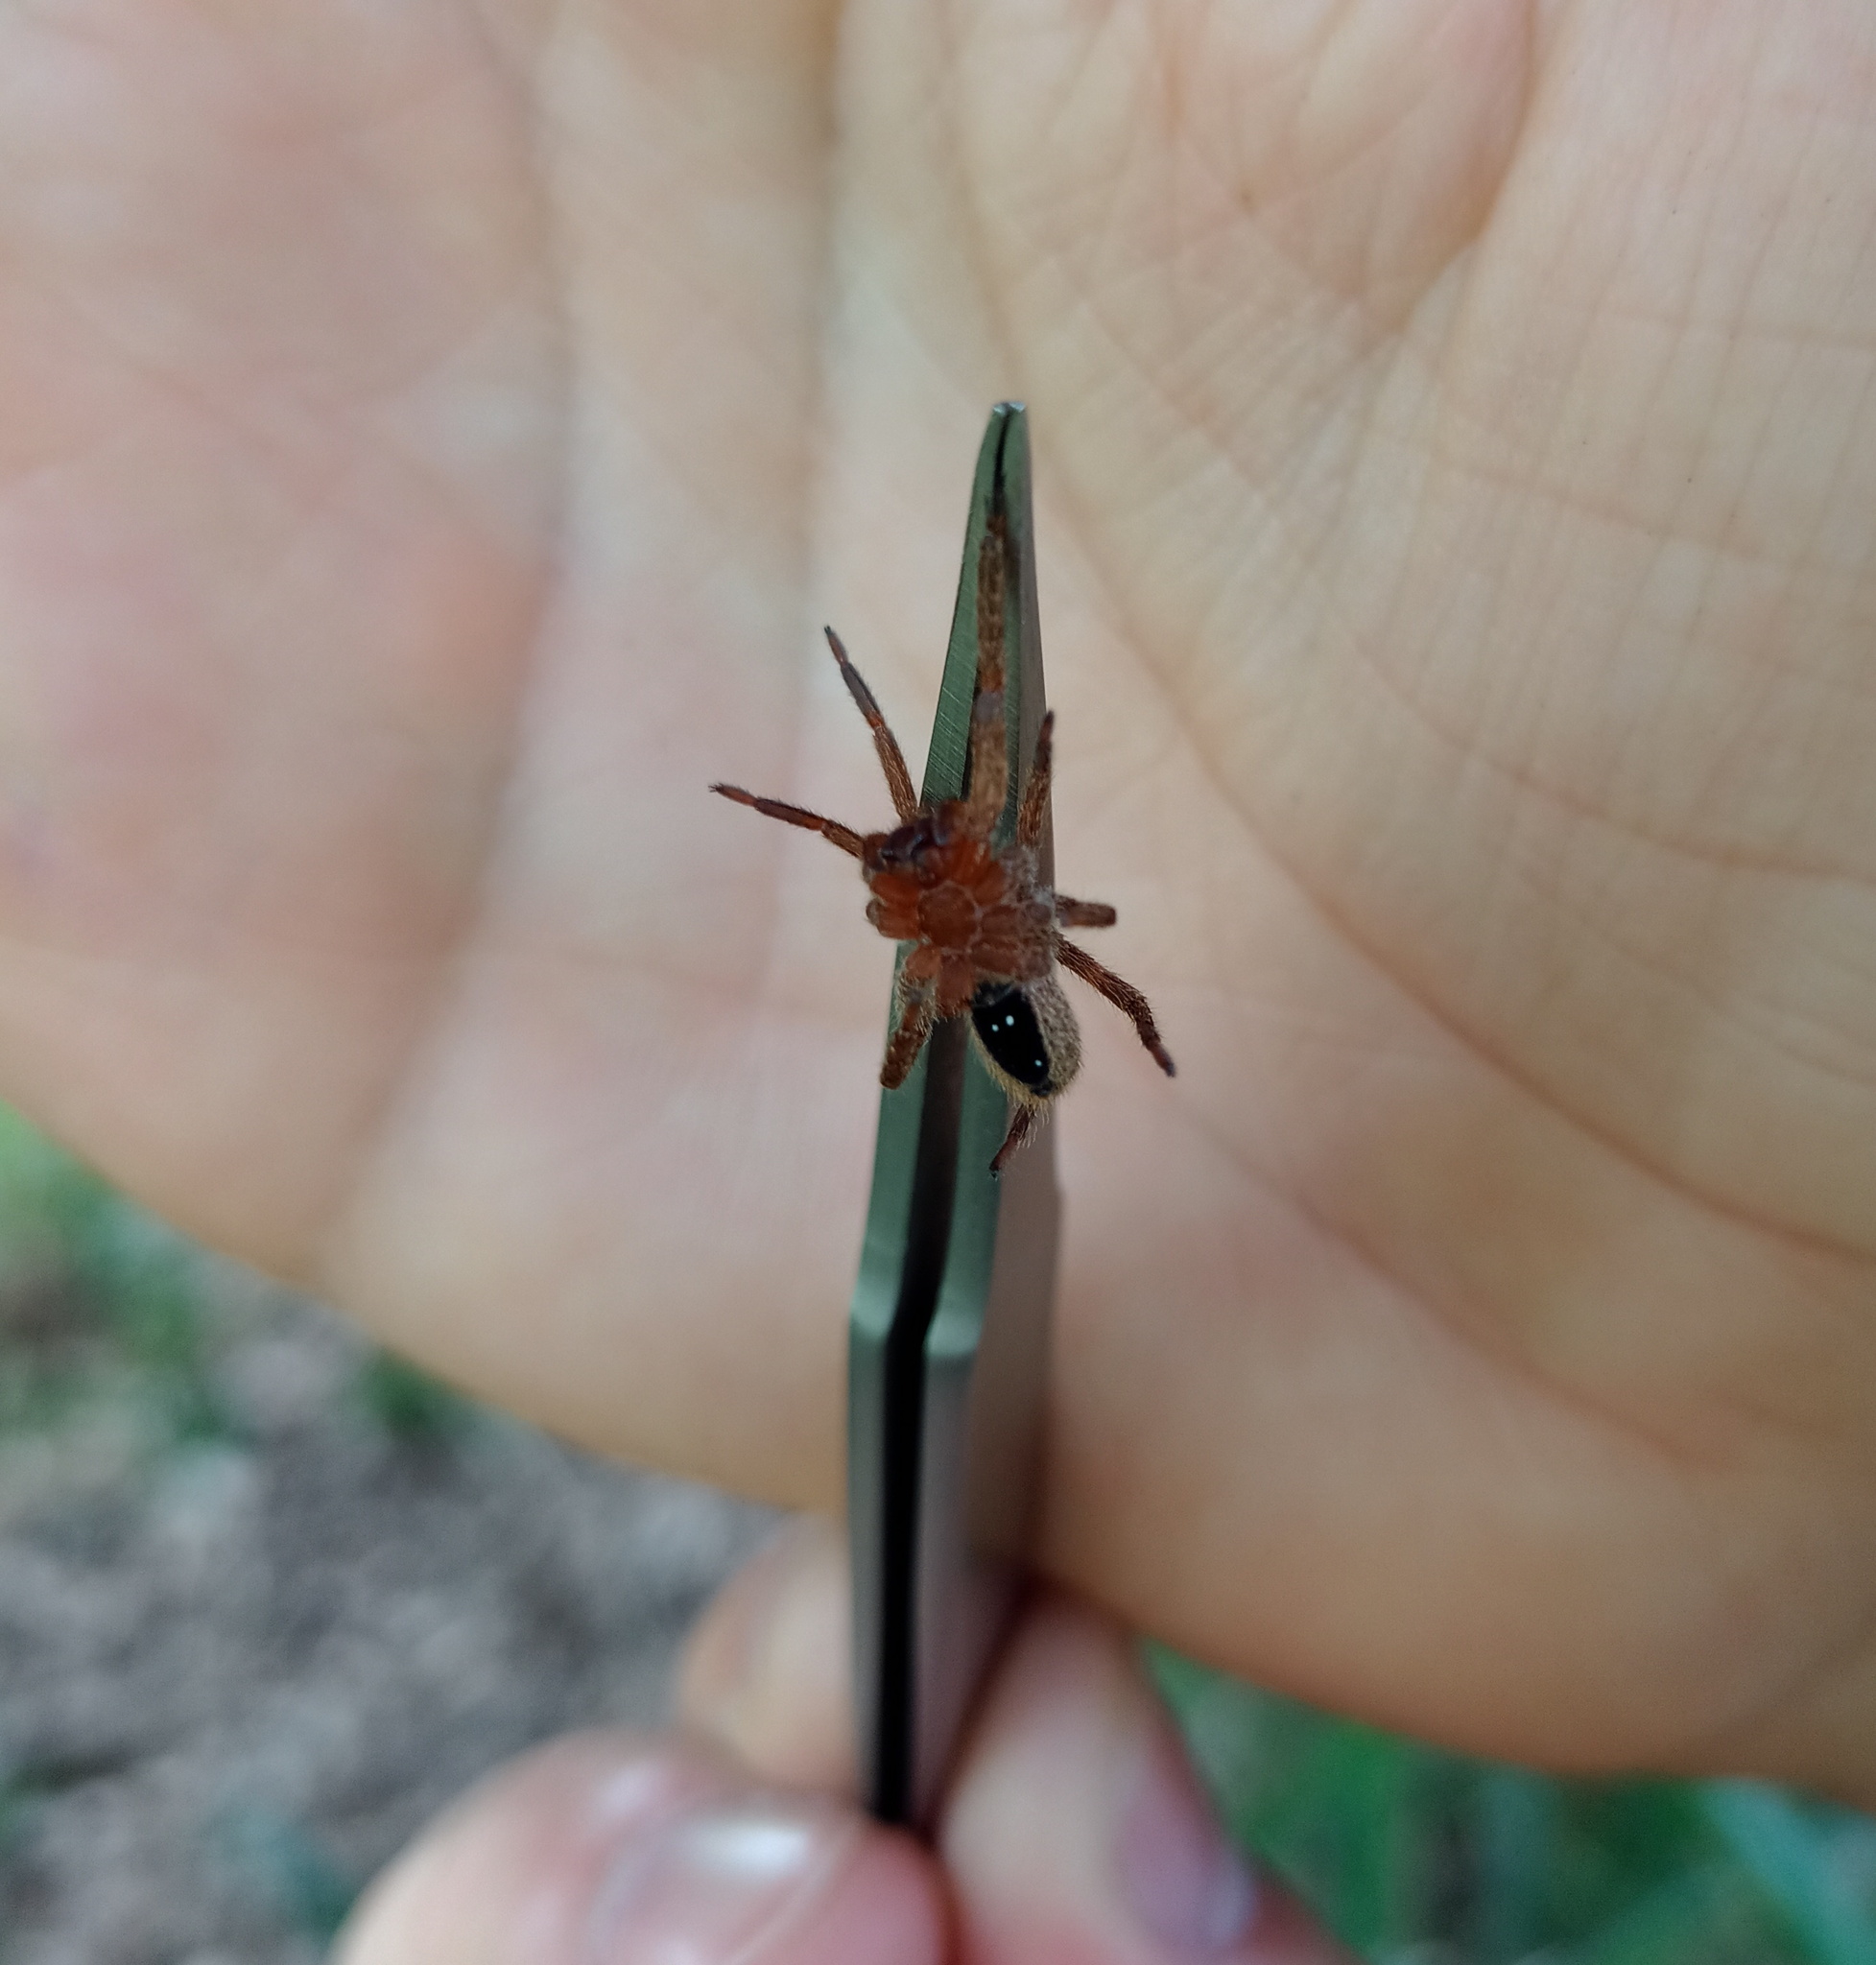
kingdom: Animalia
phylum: Arthropoda
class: Arachnida
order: Araneae
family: Ctenidae
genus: Parabatinga
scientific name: Parabatinga brevipes
